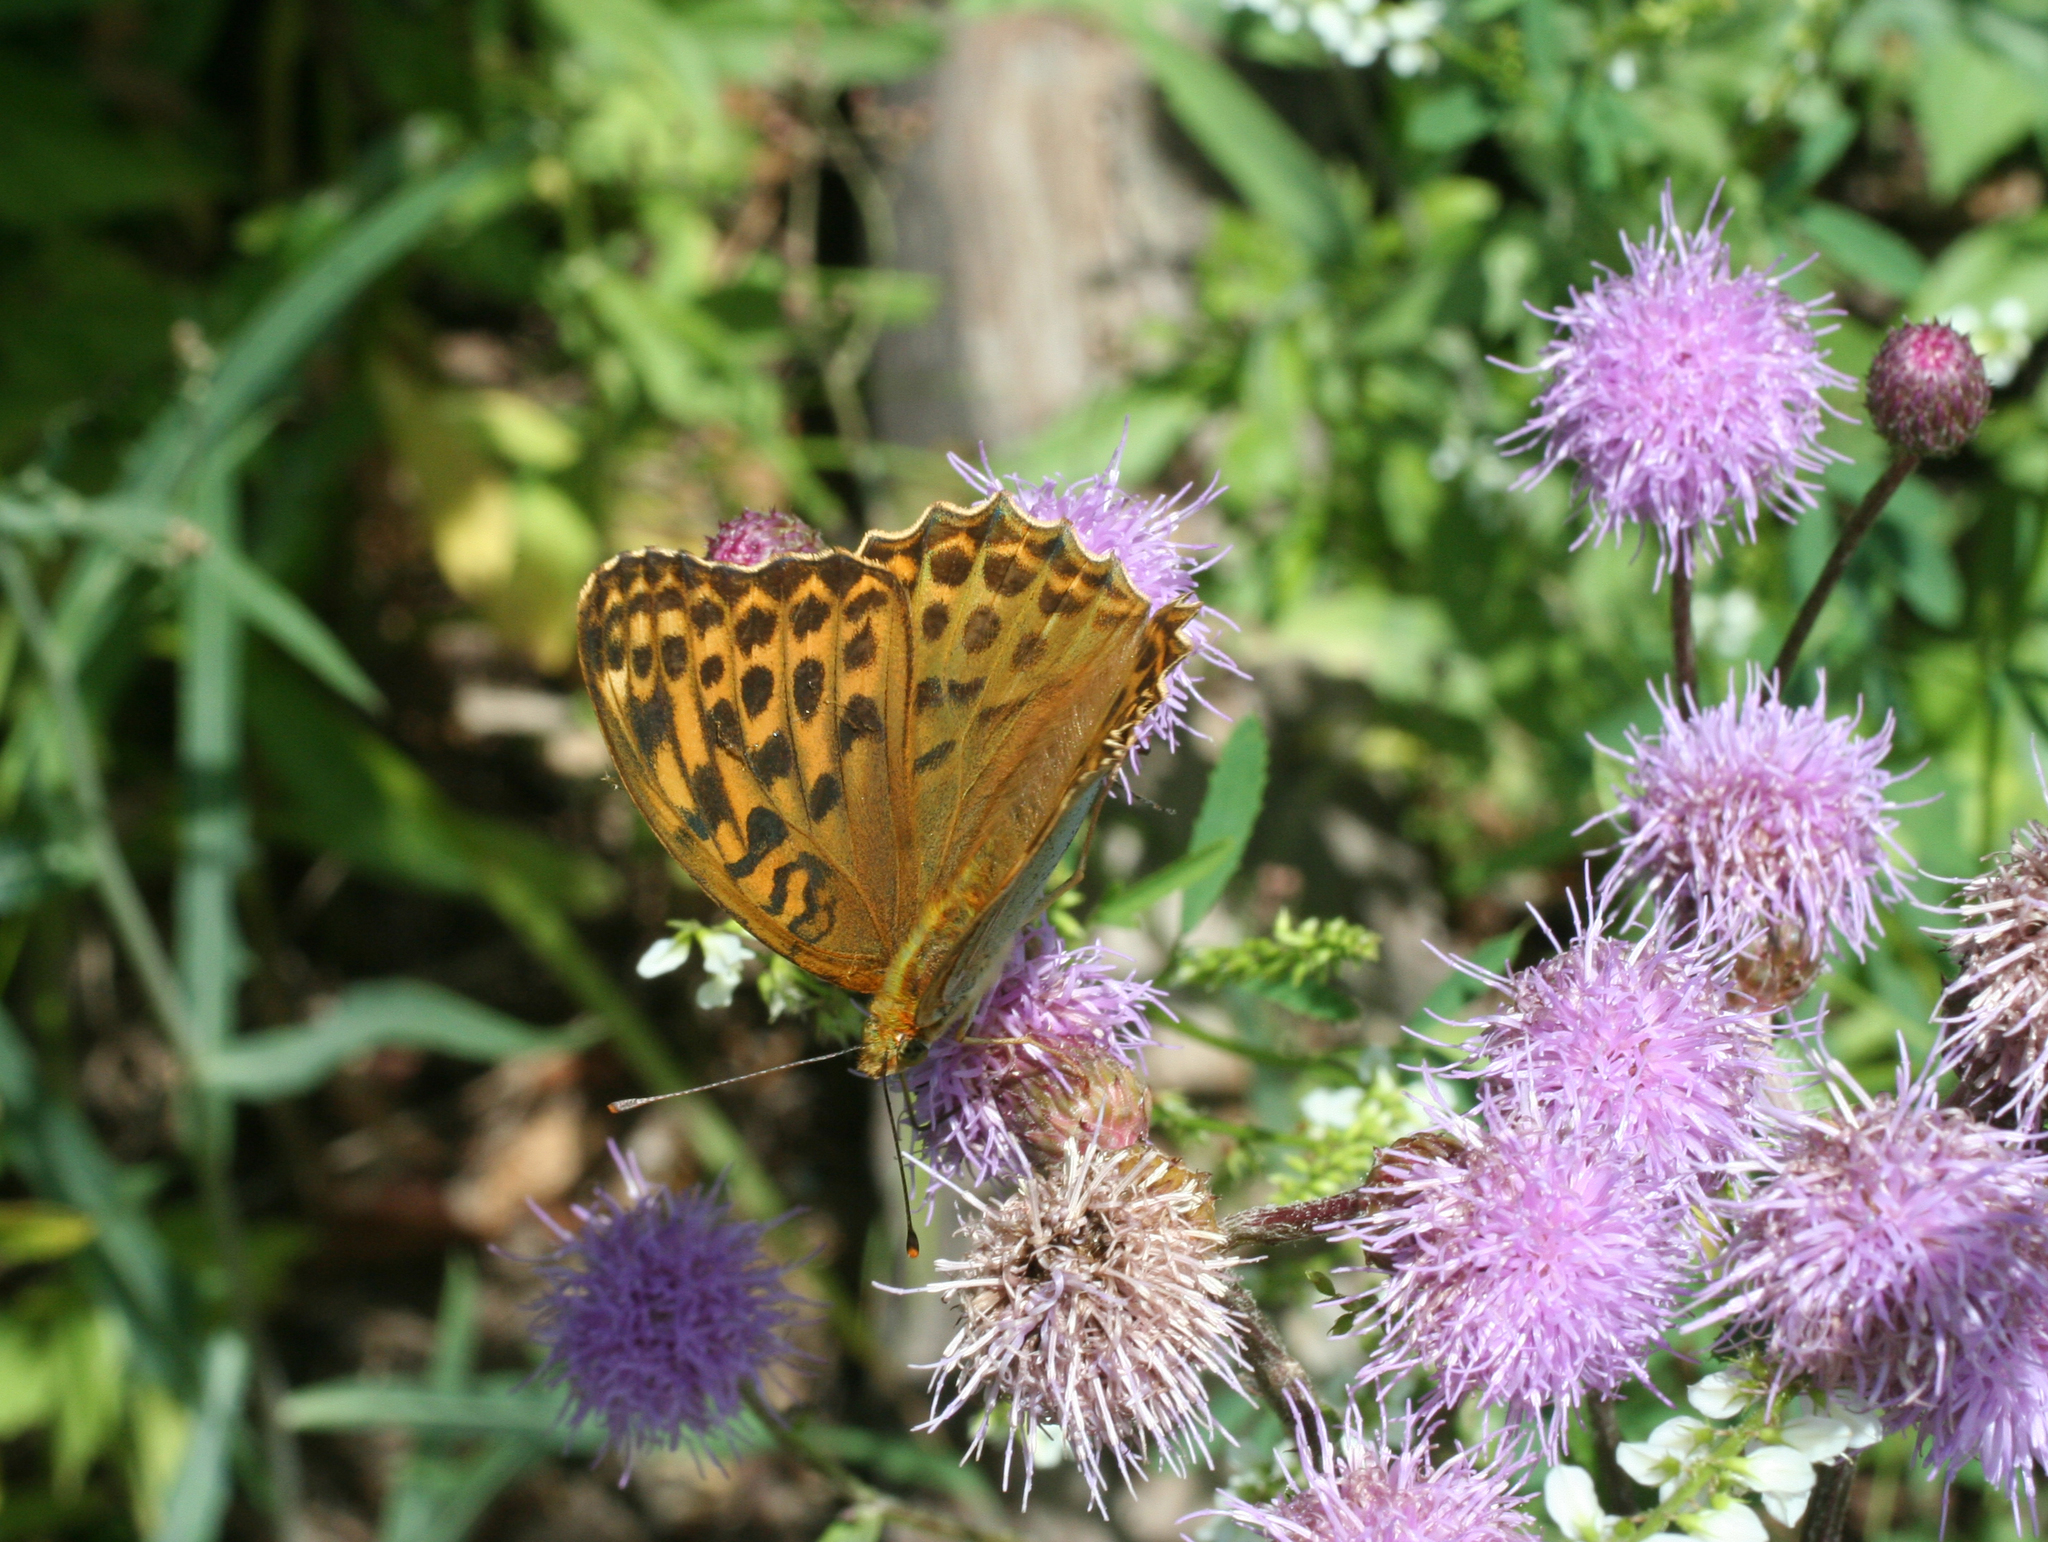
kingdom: Animalia
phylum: Arthropoda
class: Insecta
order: Lepidoptera
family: Nymphalidae
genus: Argynnis
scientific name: Argynnis paphia
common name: Silver-washed fritillary
